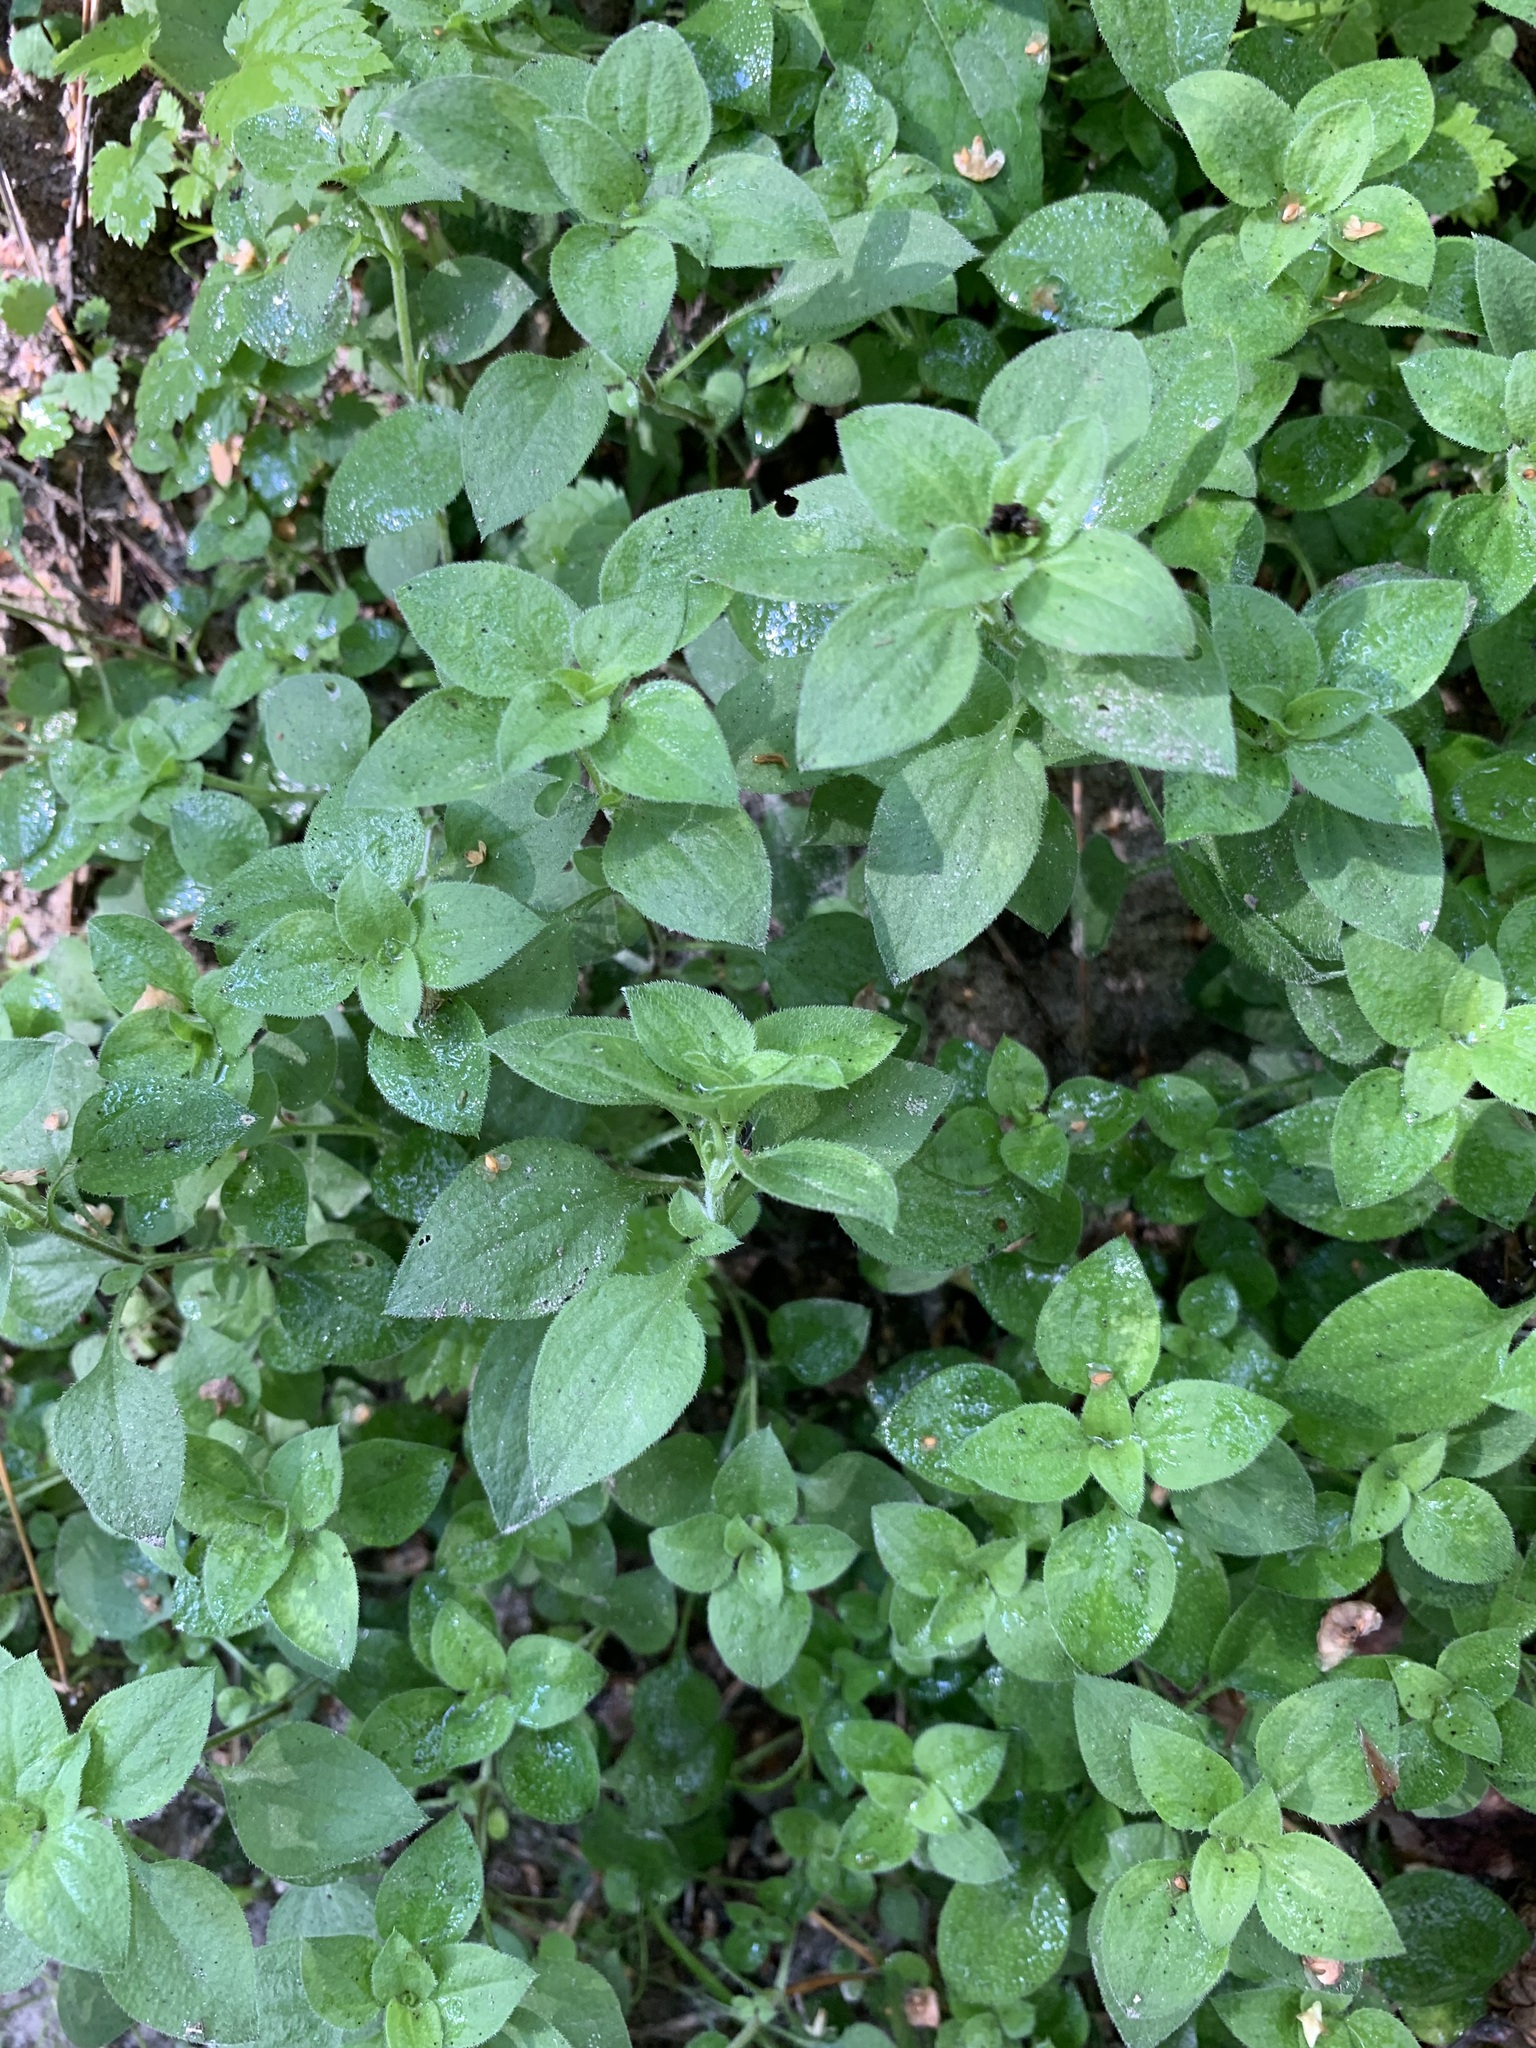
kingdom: Plantae
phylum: Tracheophyta
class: Magnoliopsida
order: Caryophyllales
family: Caryophyllaceae
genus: Moehringia
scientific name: Moehringia trinervia
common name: Three-nerved sandwort
